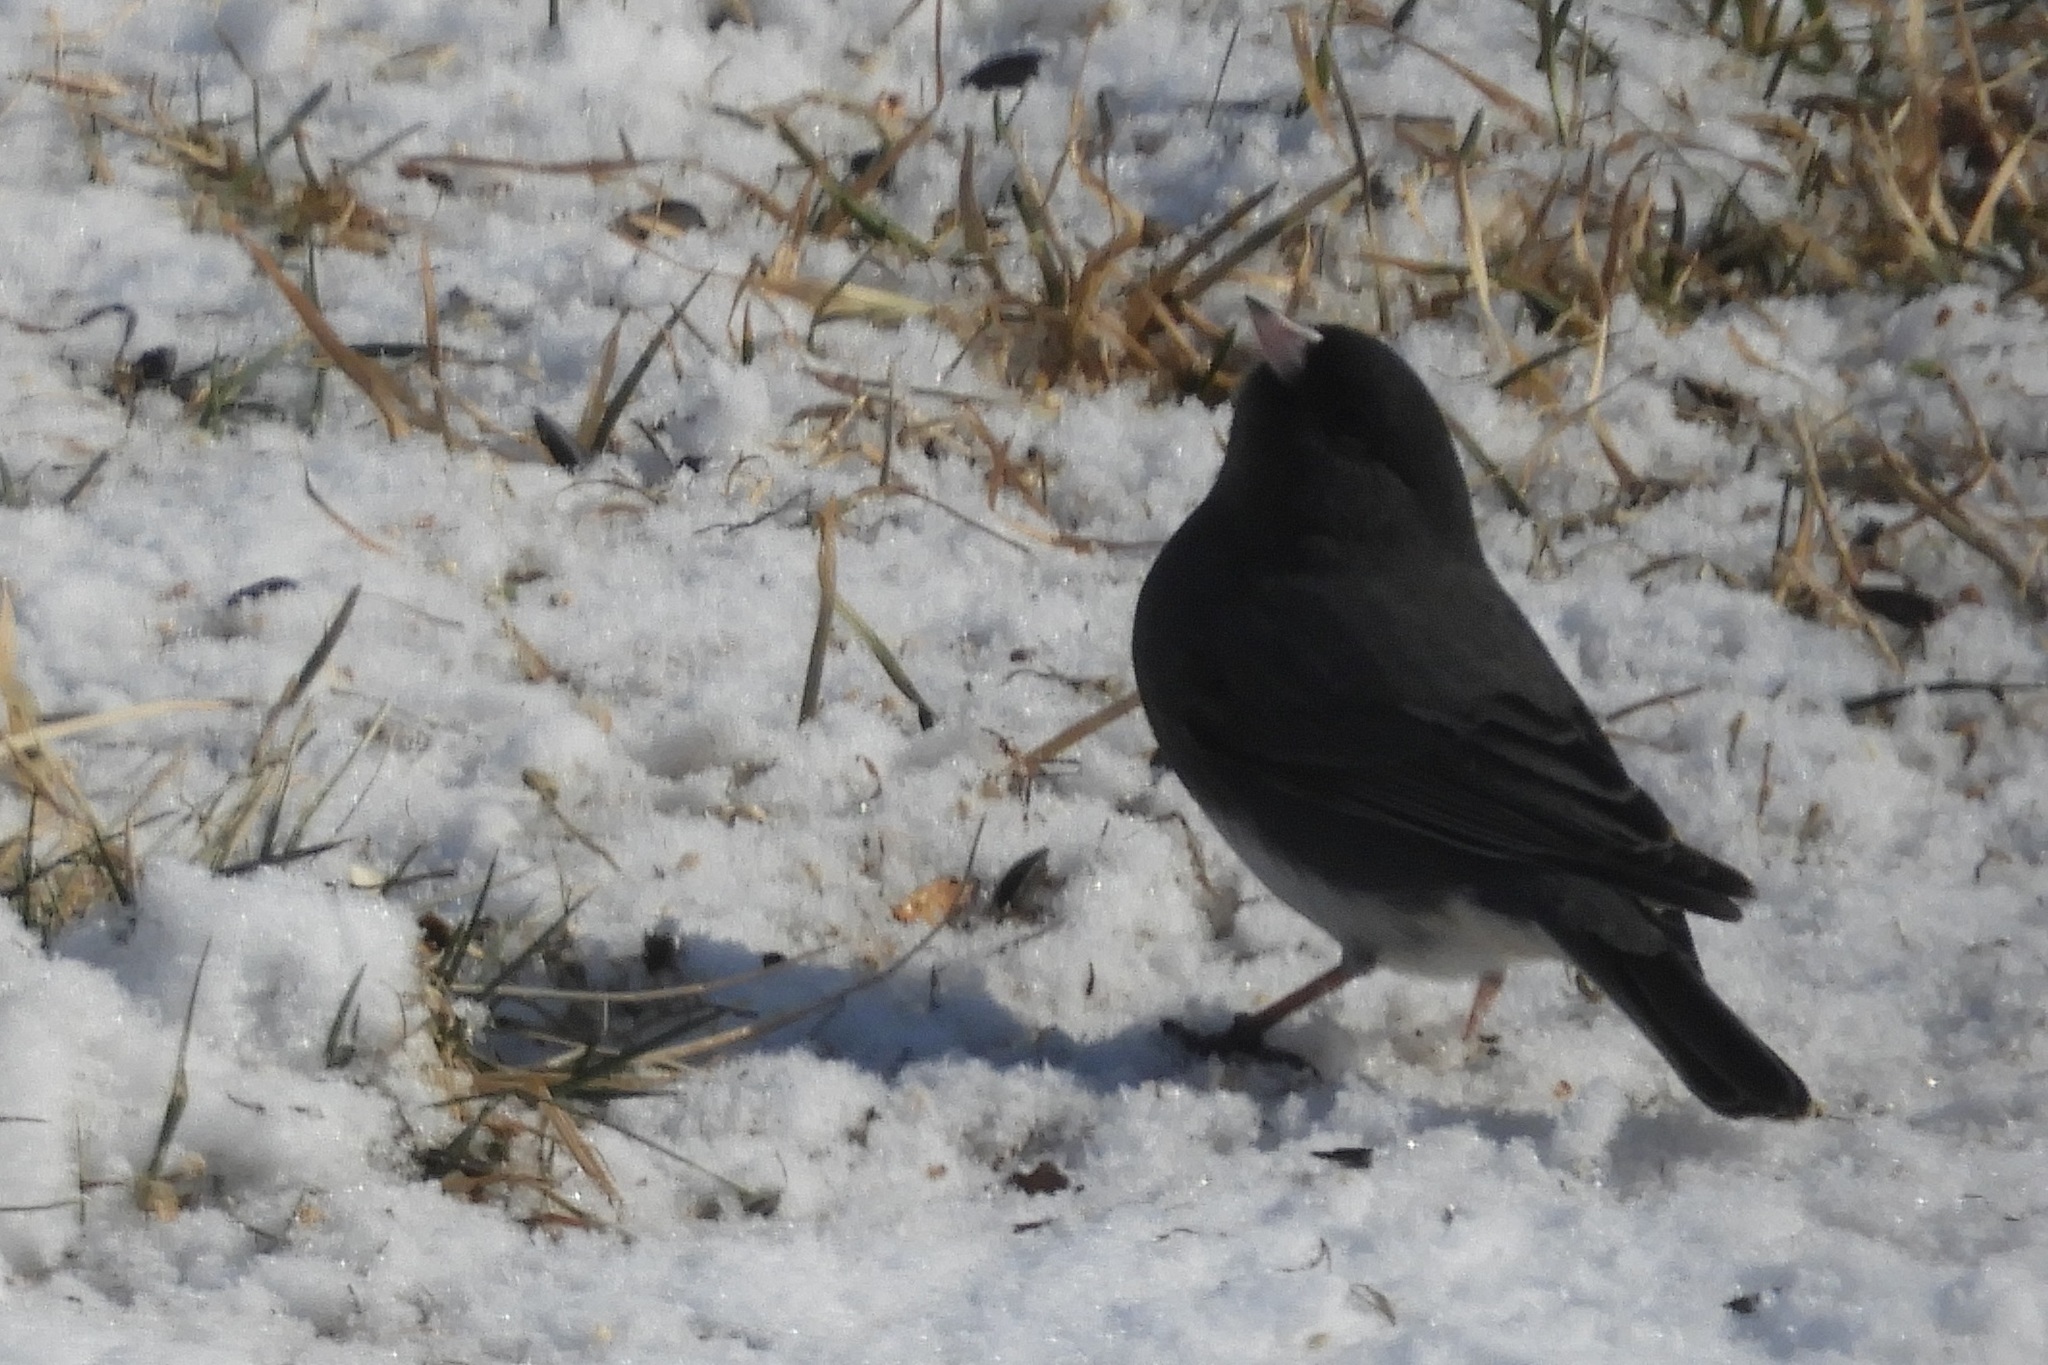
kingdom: Animalia
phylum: Chordata
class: Aves
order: Passeriformes
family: Passerellidae
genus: Junco
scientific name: Junco hyemalis
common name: Dark-eyed junco
